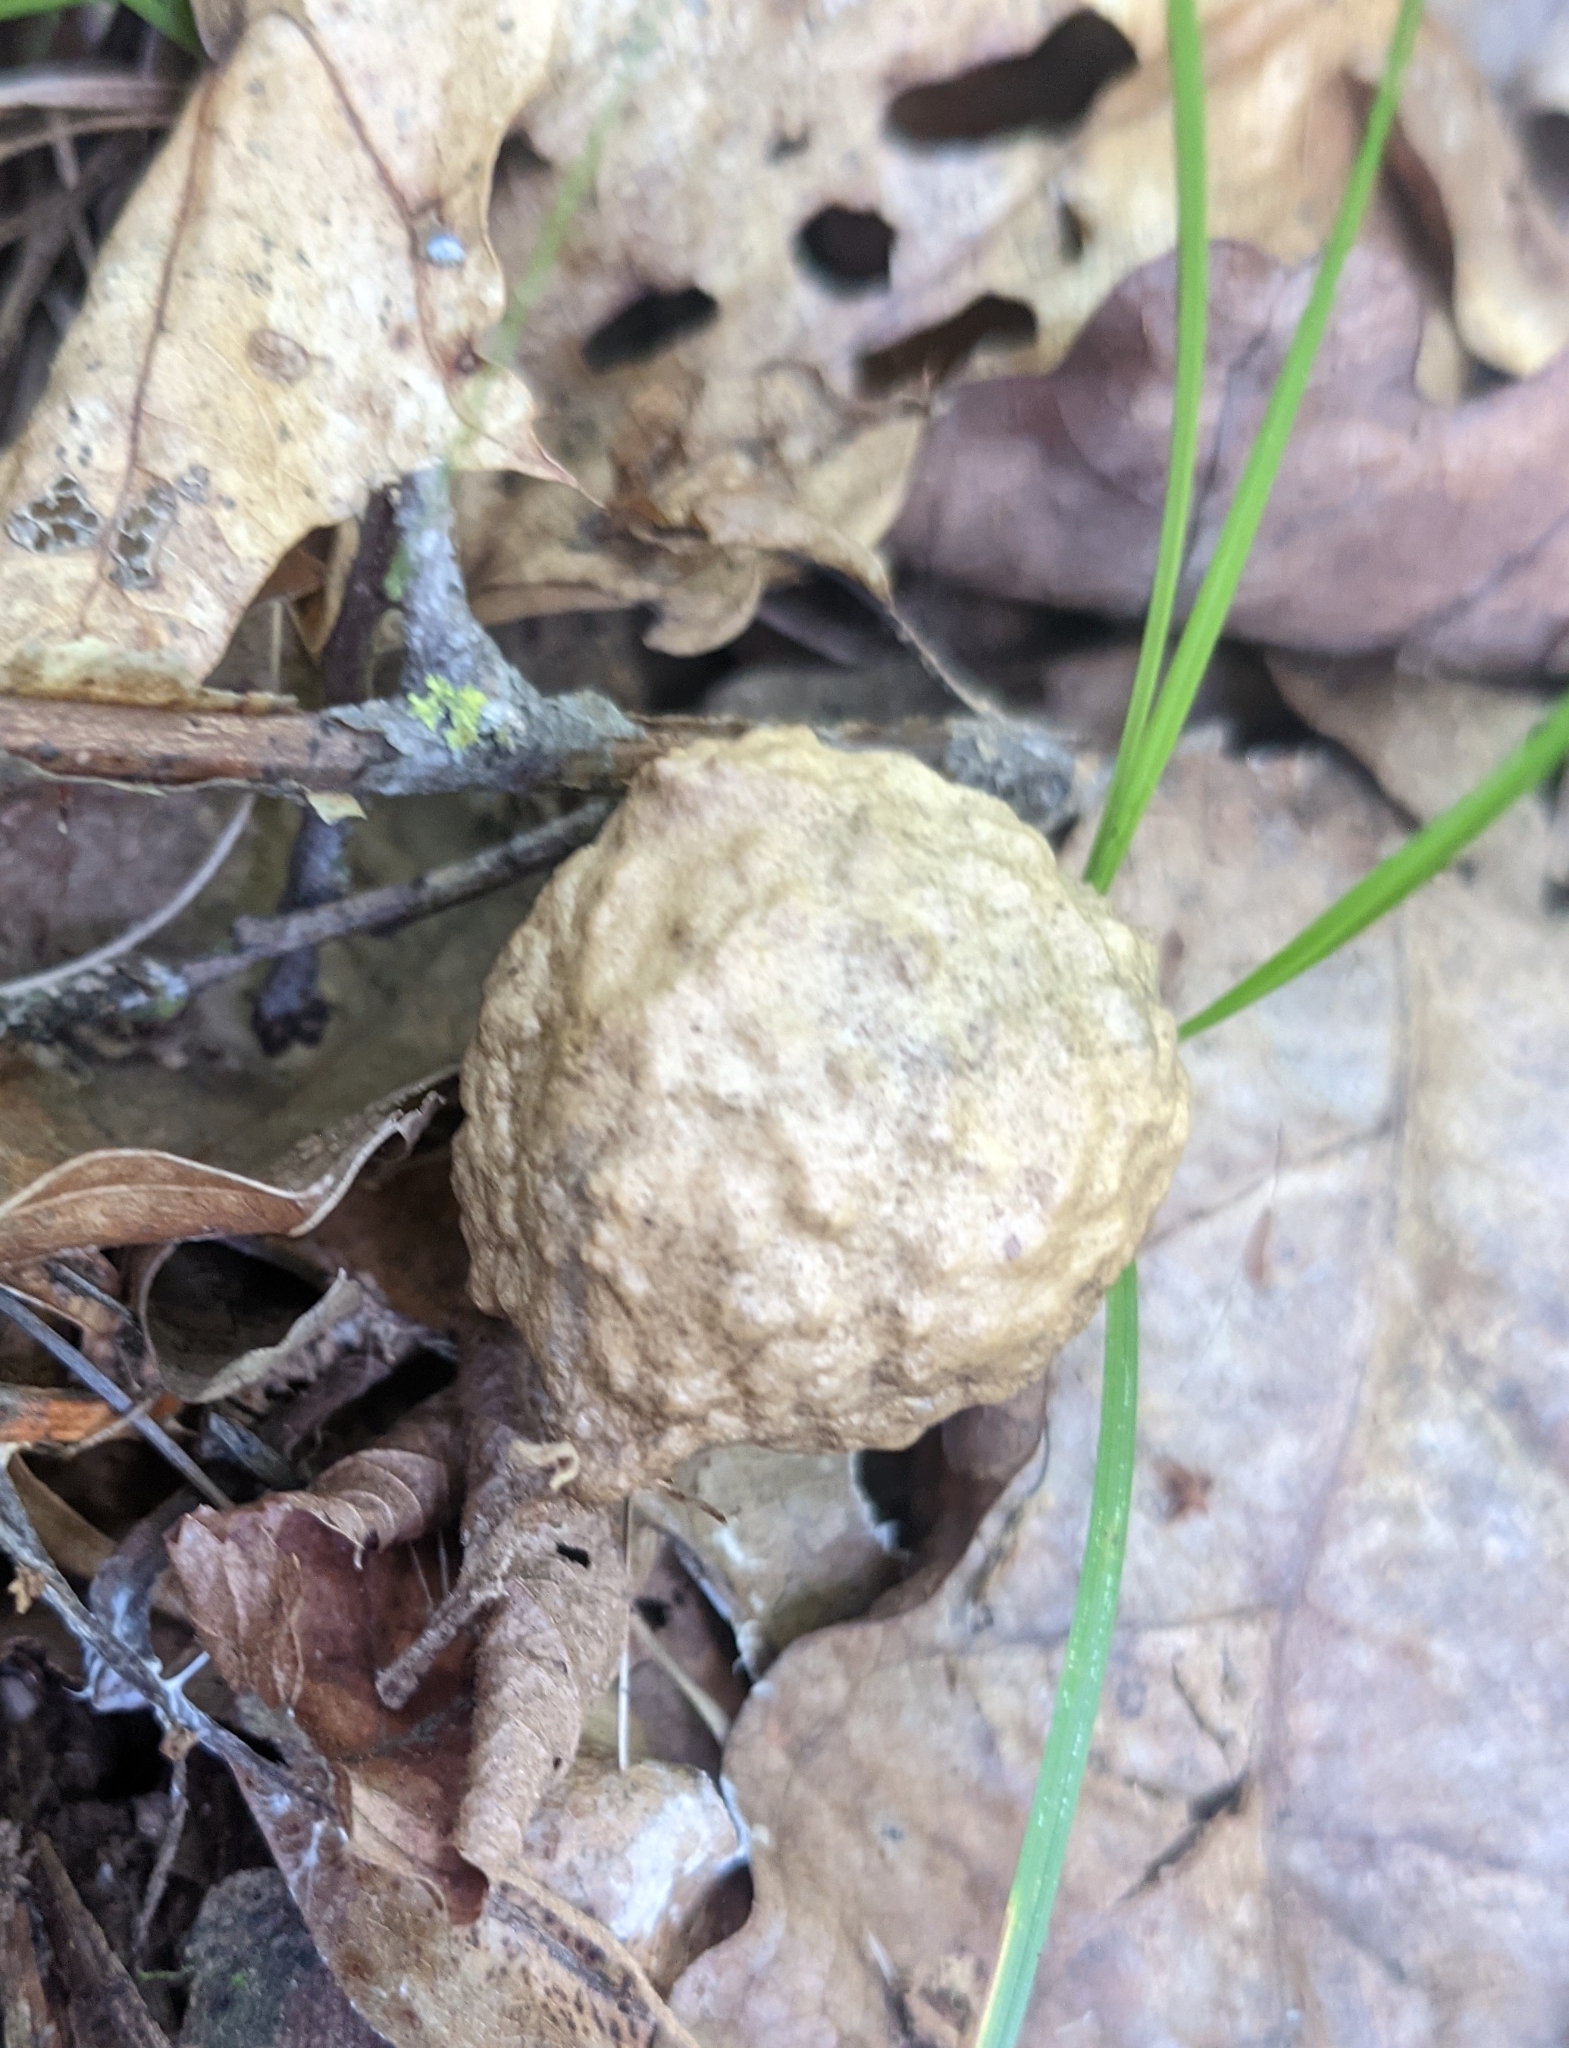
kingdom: Animalia
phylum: Arthropoda
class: Insecta
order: Hymenoptera
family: Cynipidae
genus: Amphibolips
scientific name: Amphibolips
